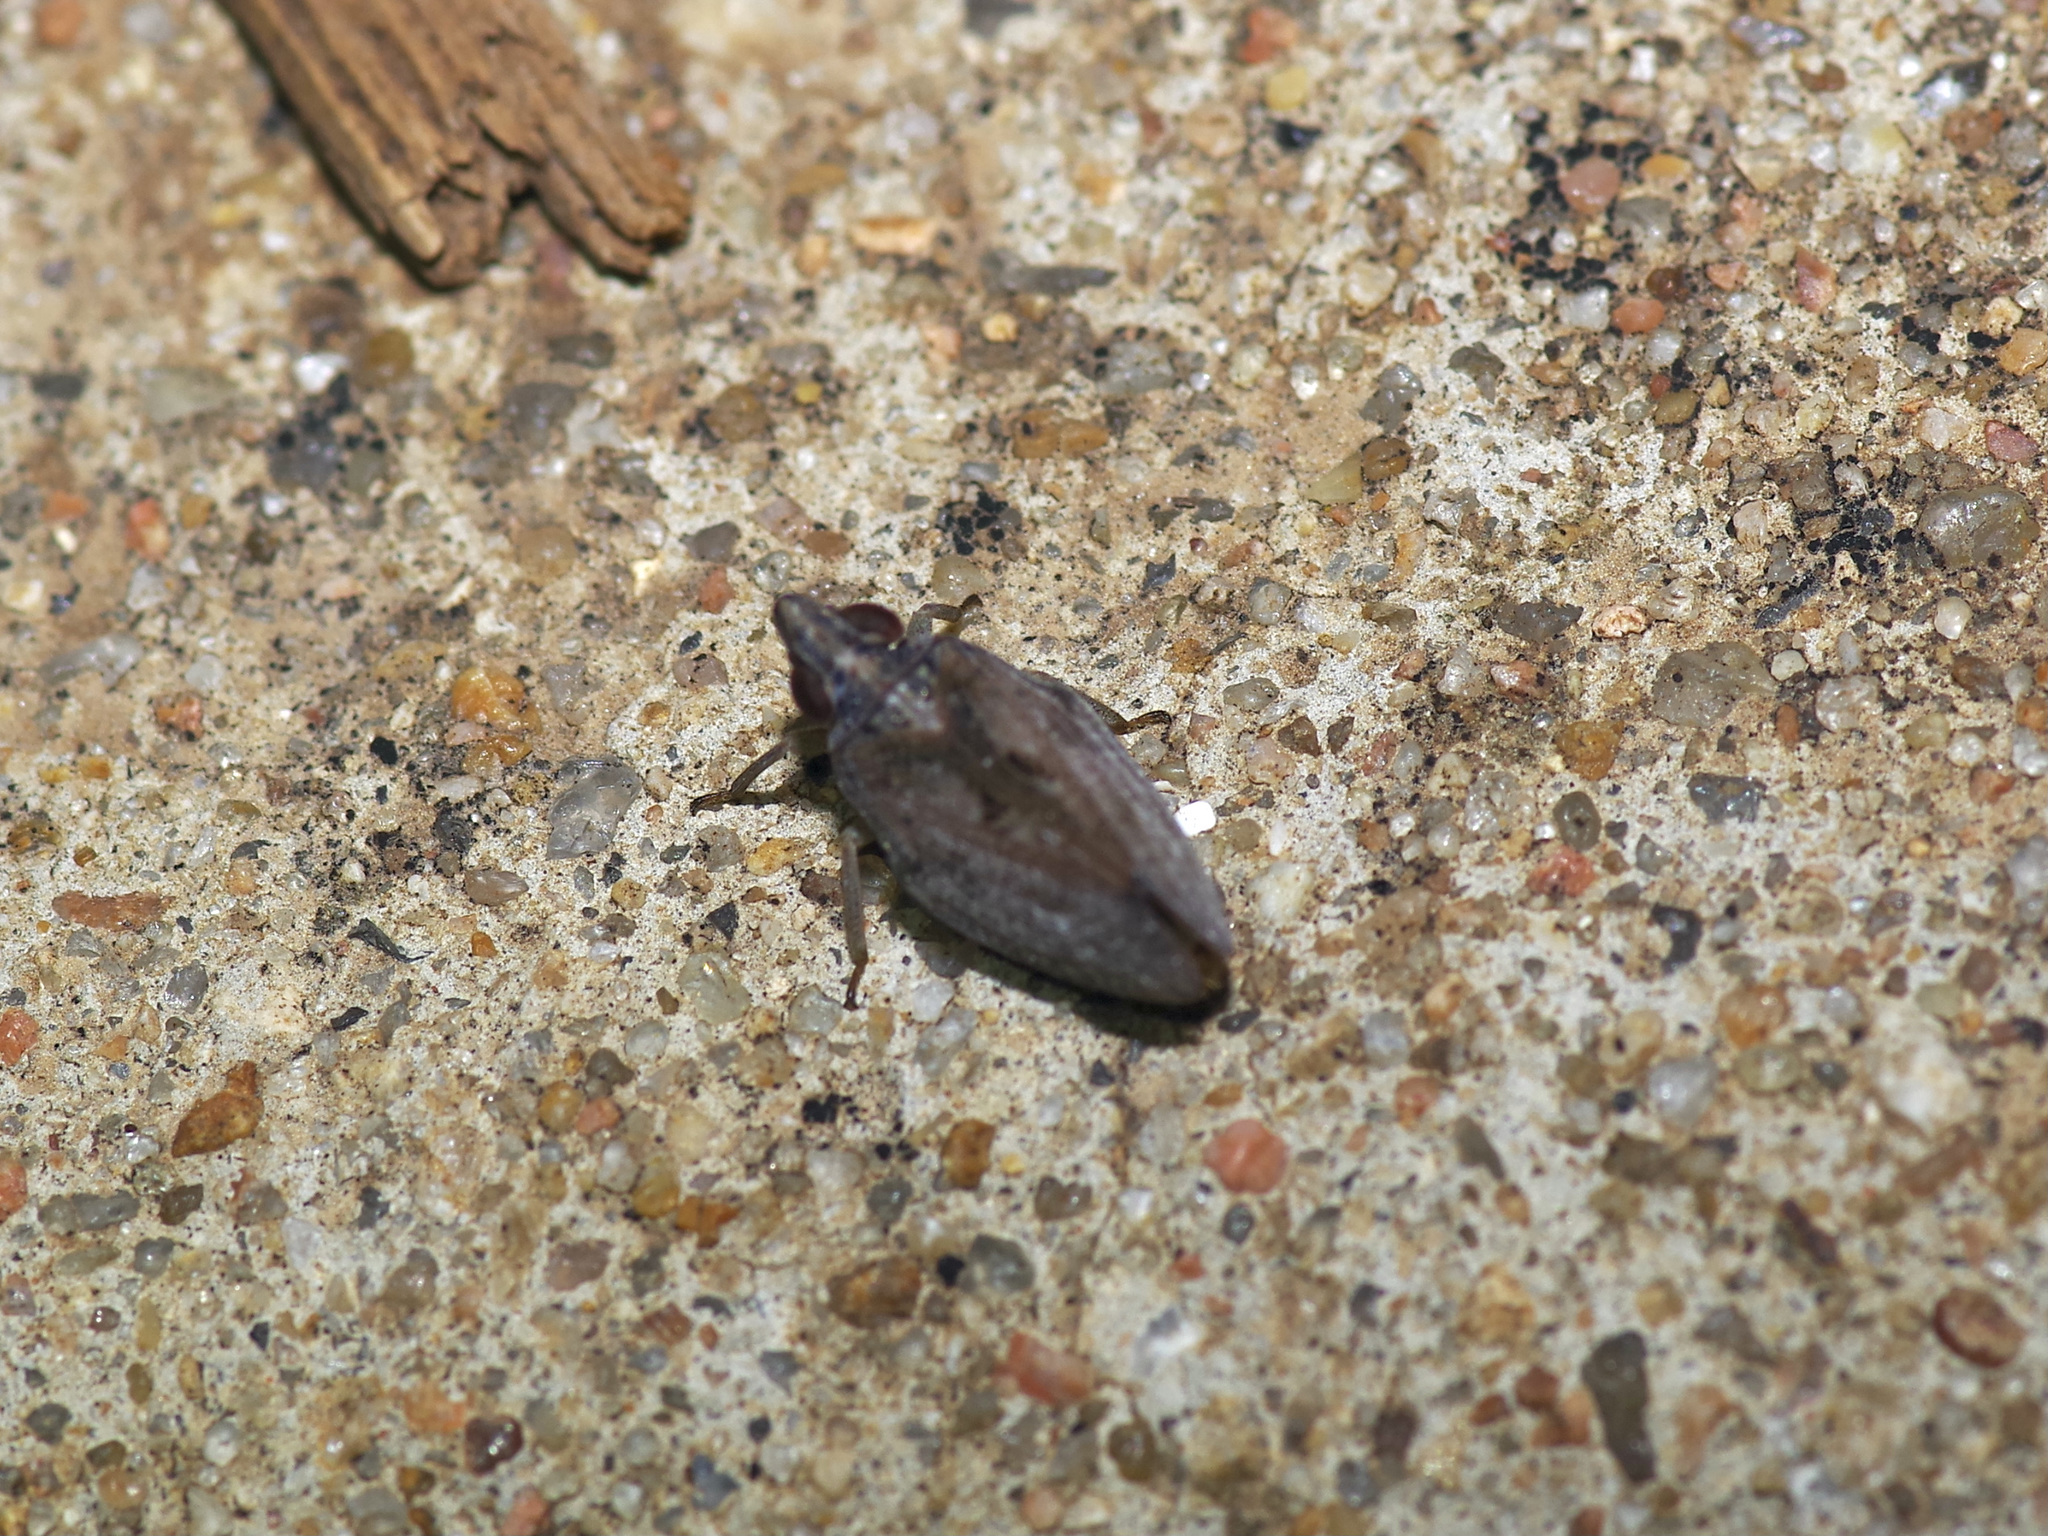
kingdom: Animalia
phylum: Arthropoda
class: Insecta
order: Hemiptera
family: Issidae
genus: Fowlerium
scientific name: Fowlerium acutum
